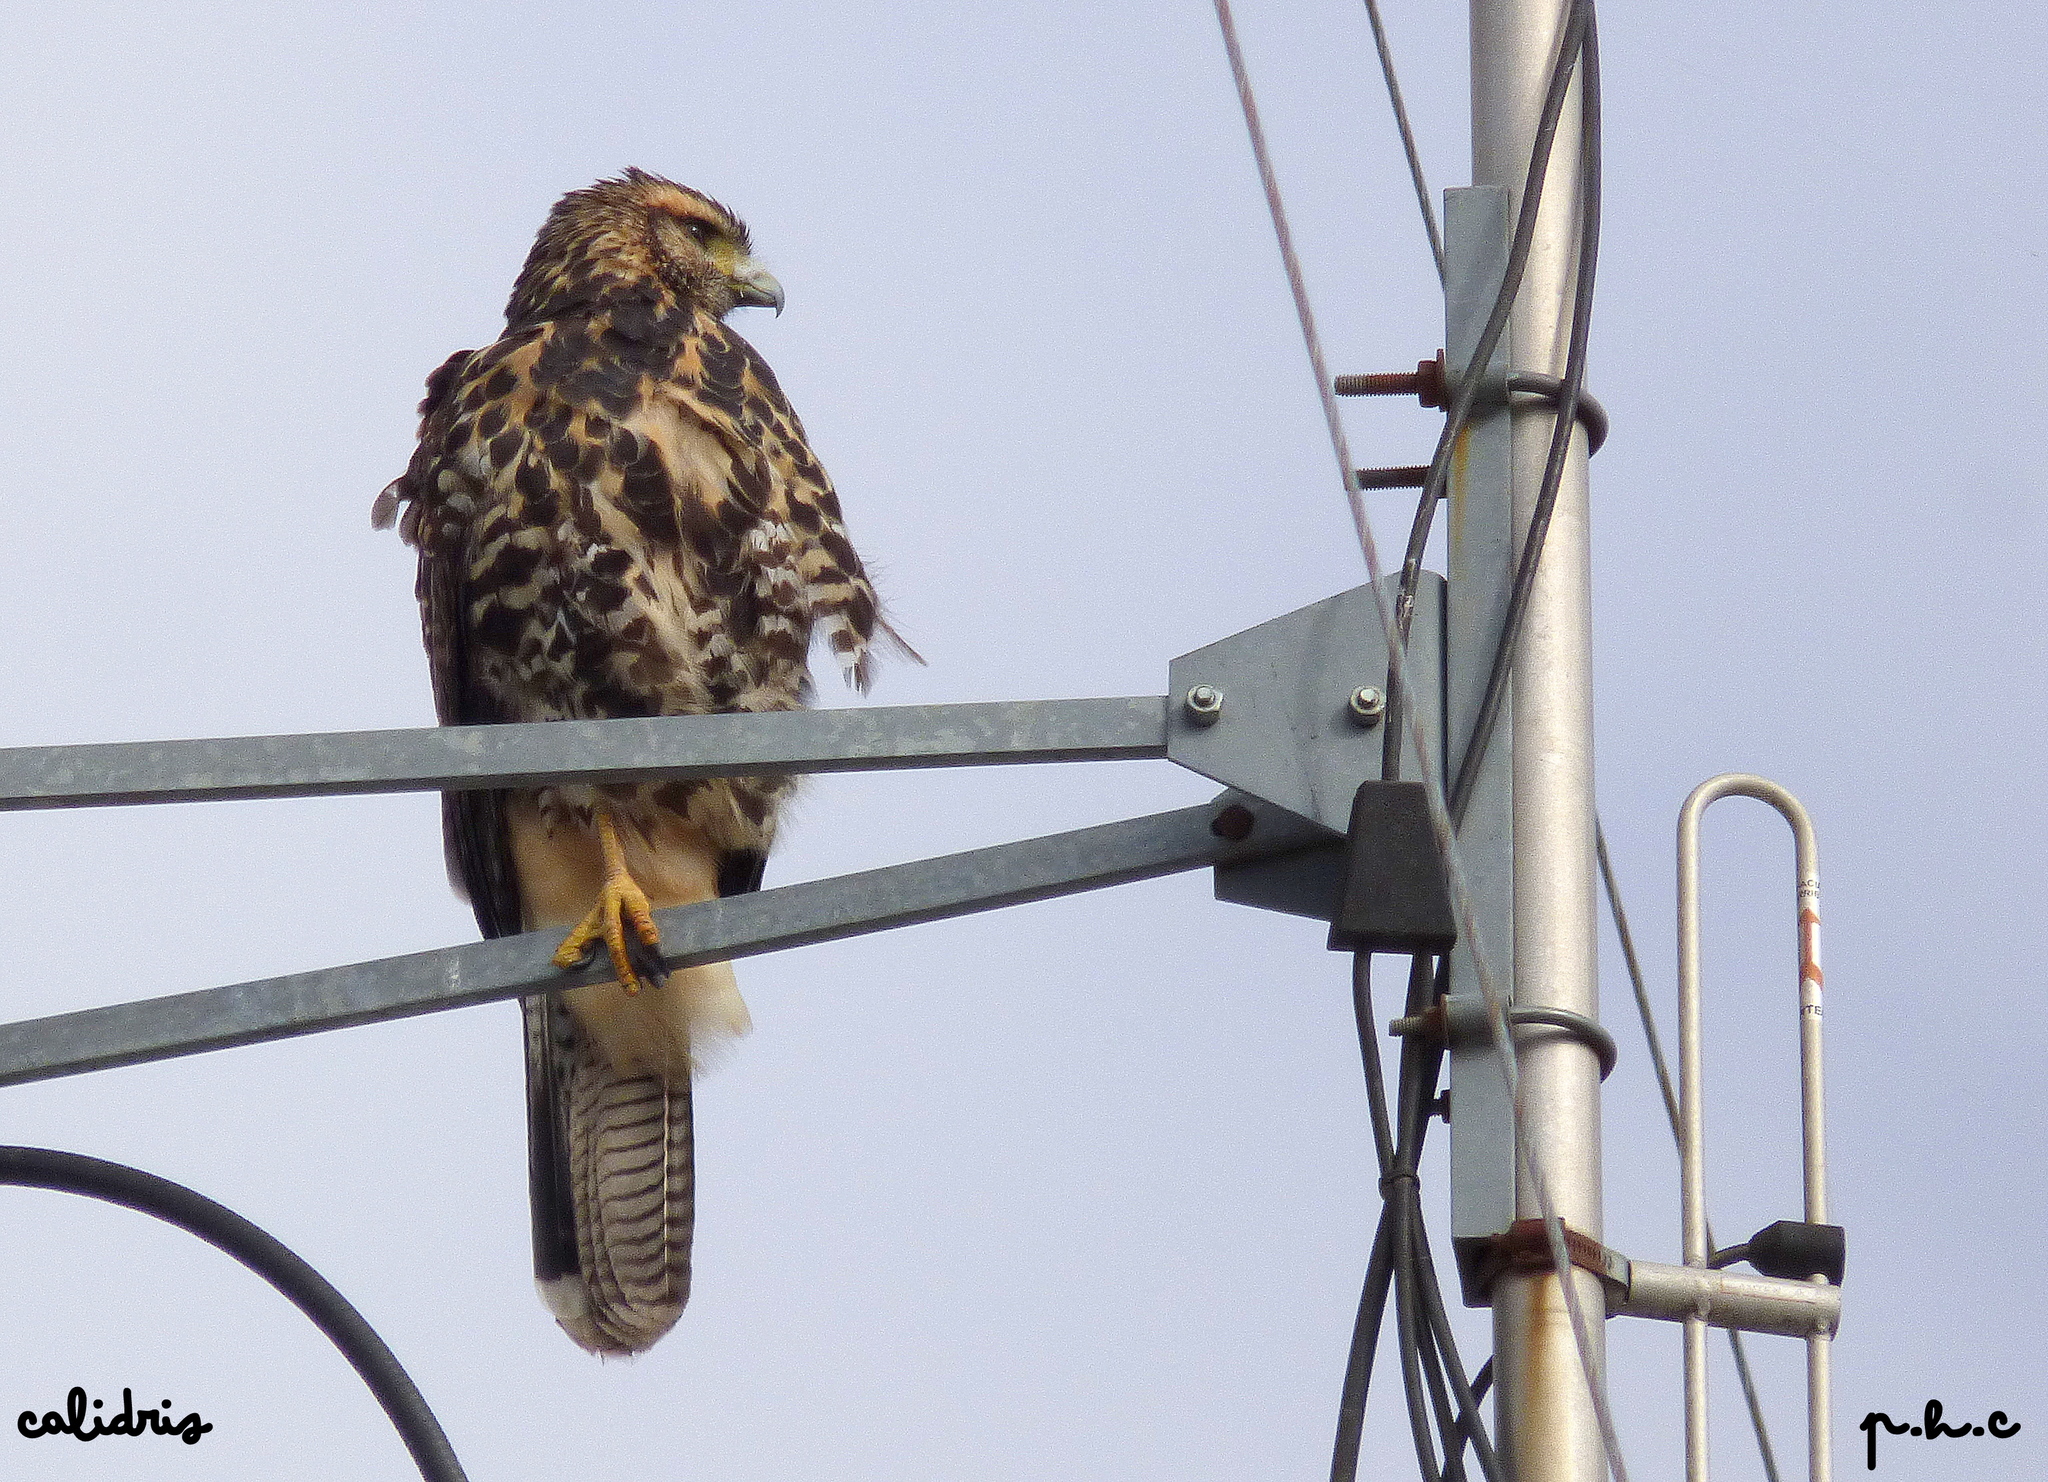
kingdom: Animalia
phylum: Chordata
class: Aves
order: Accipitriformes
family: Accipitridae
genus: Parabuteo
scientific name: Parabuteo unicinctus
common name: Harris's hawk
